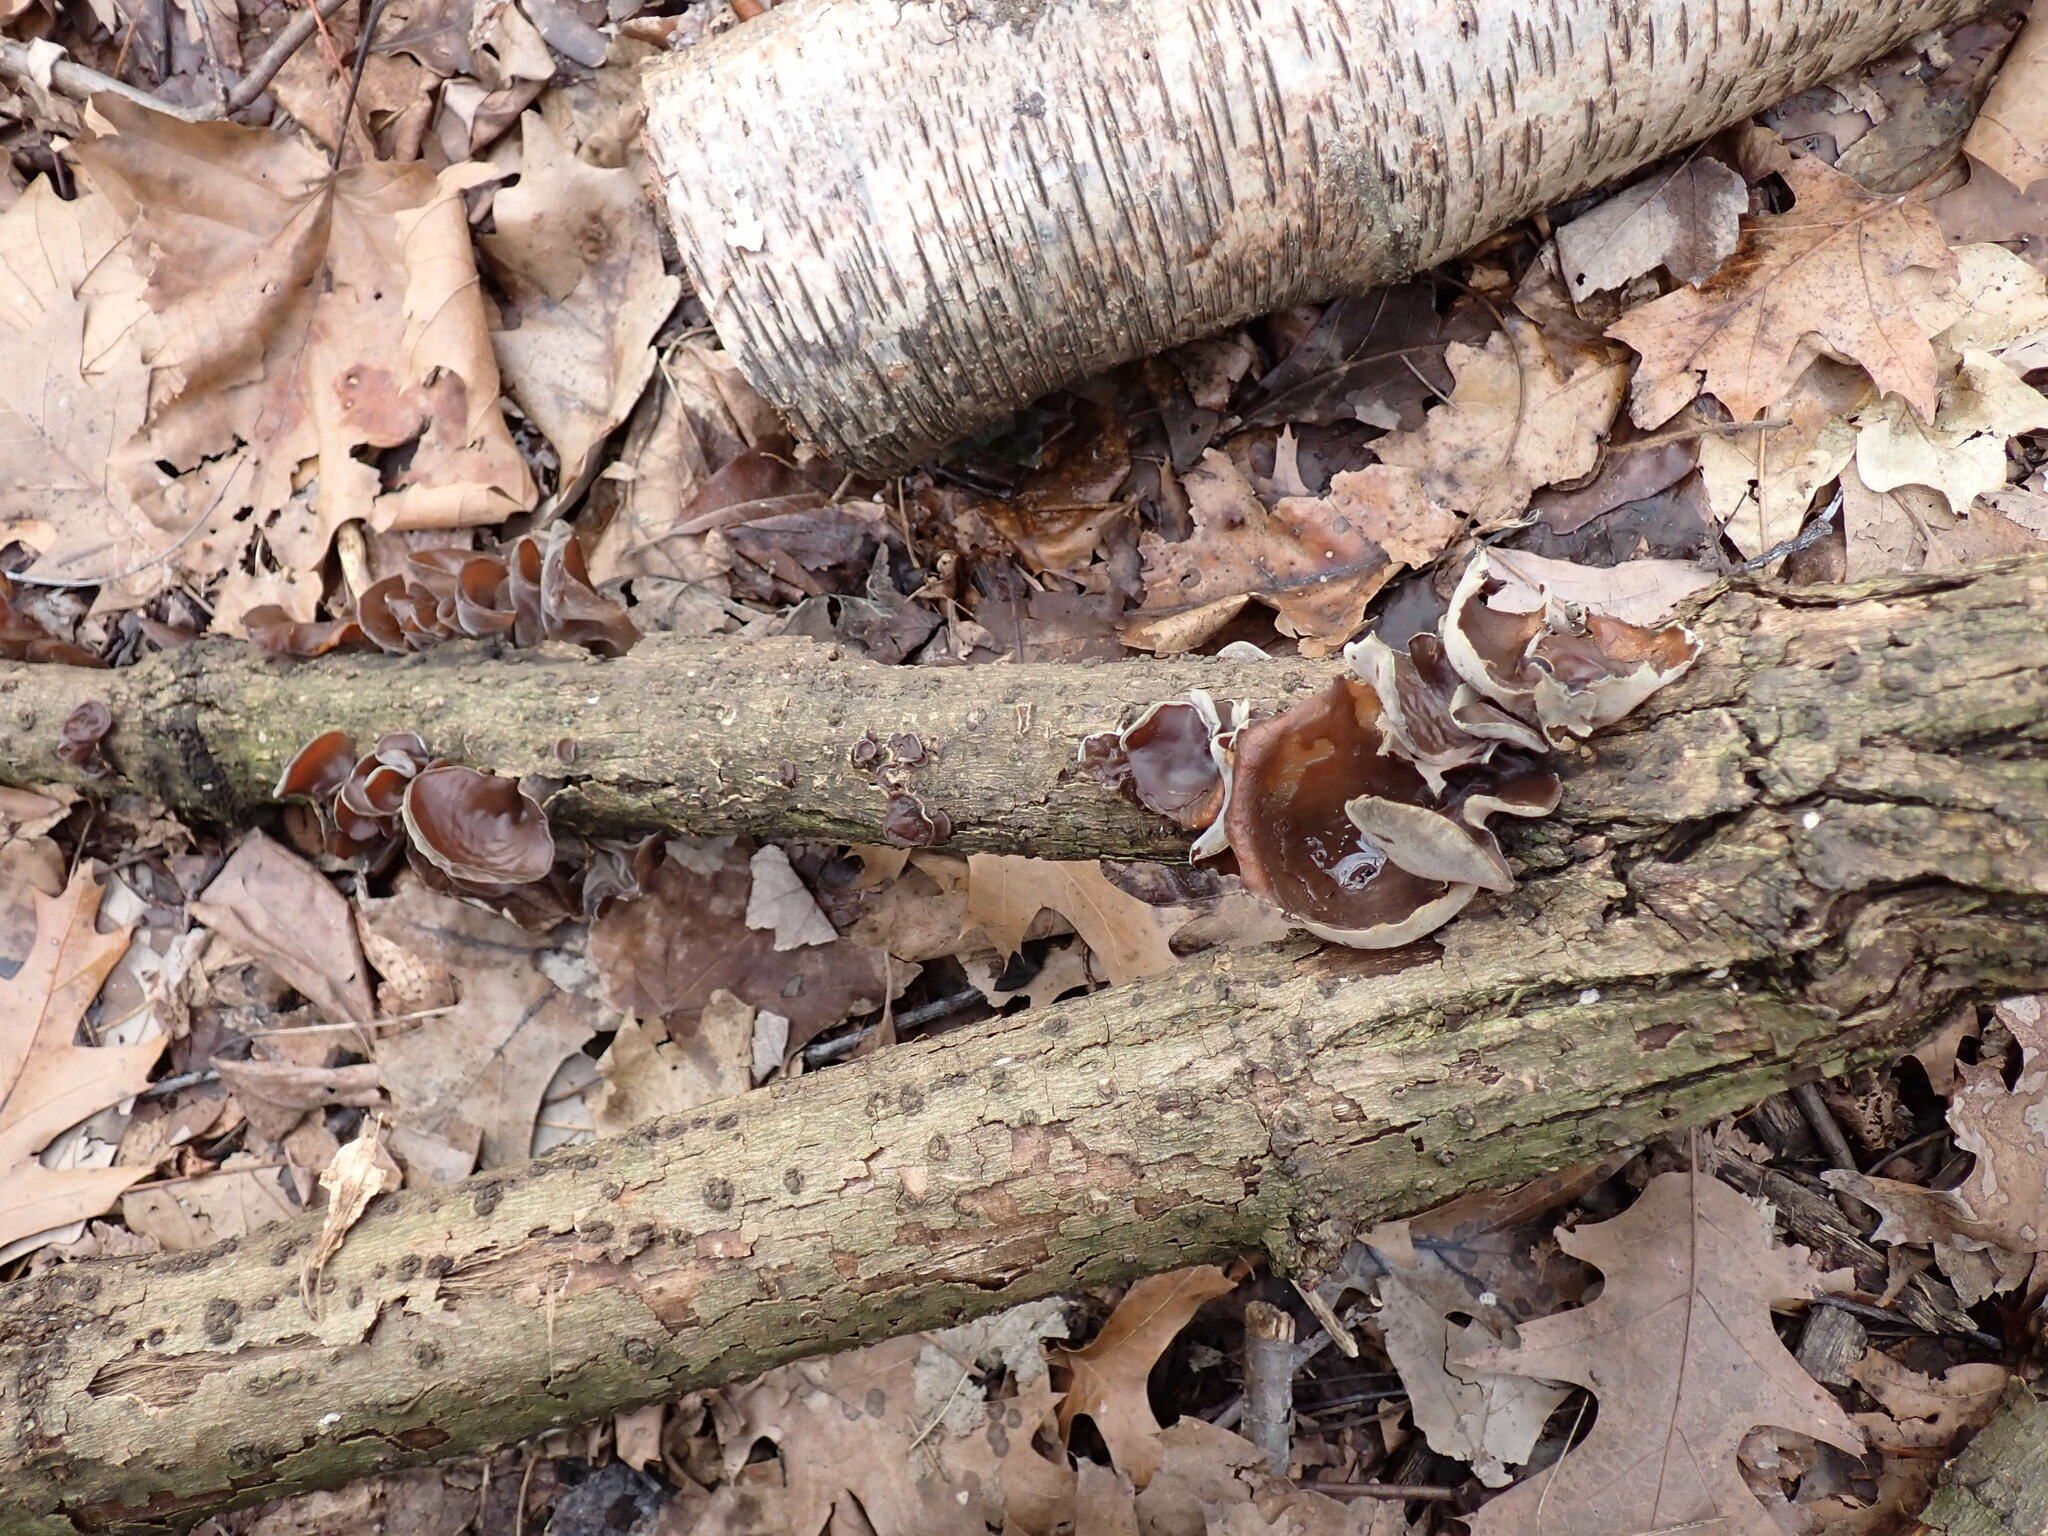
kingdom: Fungi
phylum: Basidiomycota
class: Agaricomycetes
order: Auriculariales
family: Auriculariaceae
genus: Auricularia
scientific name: Auricularia americana
